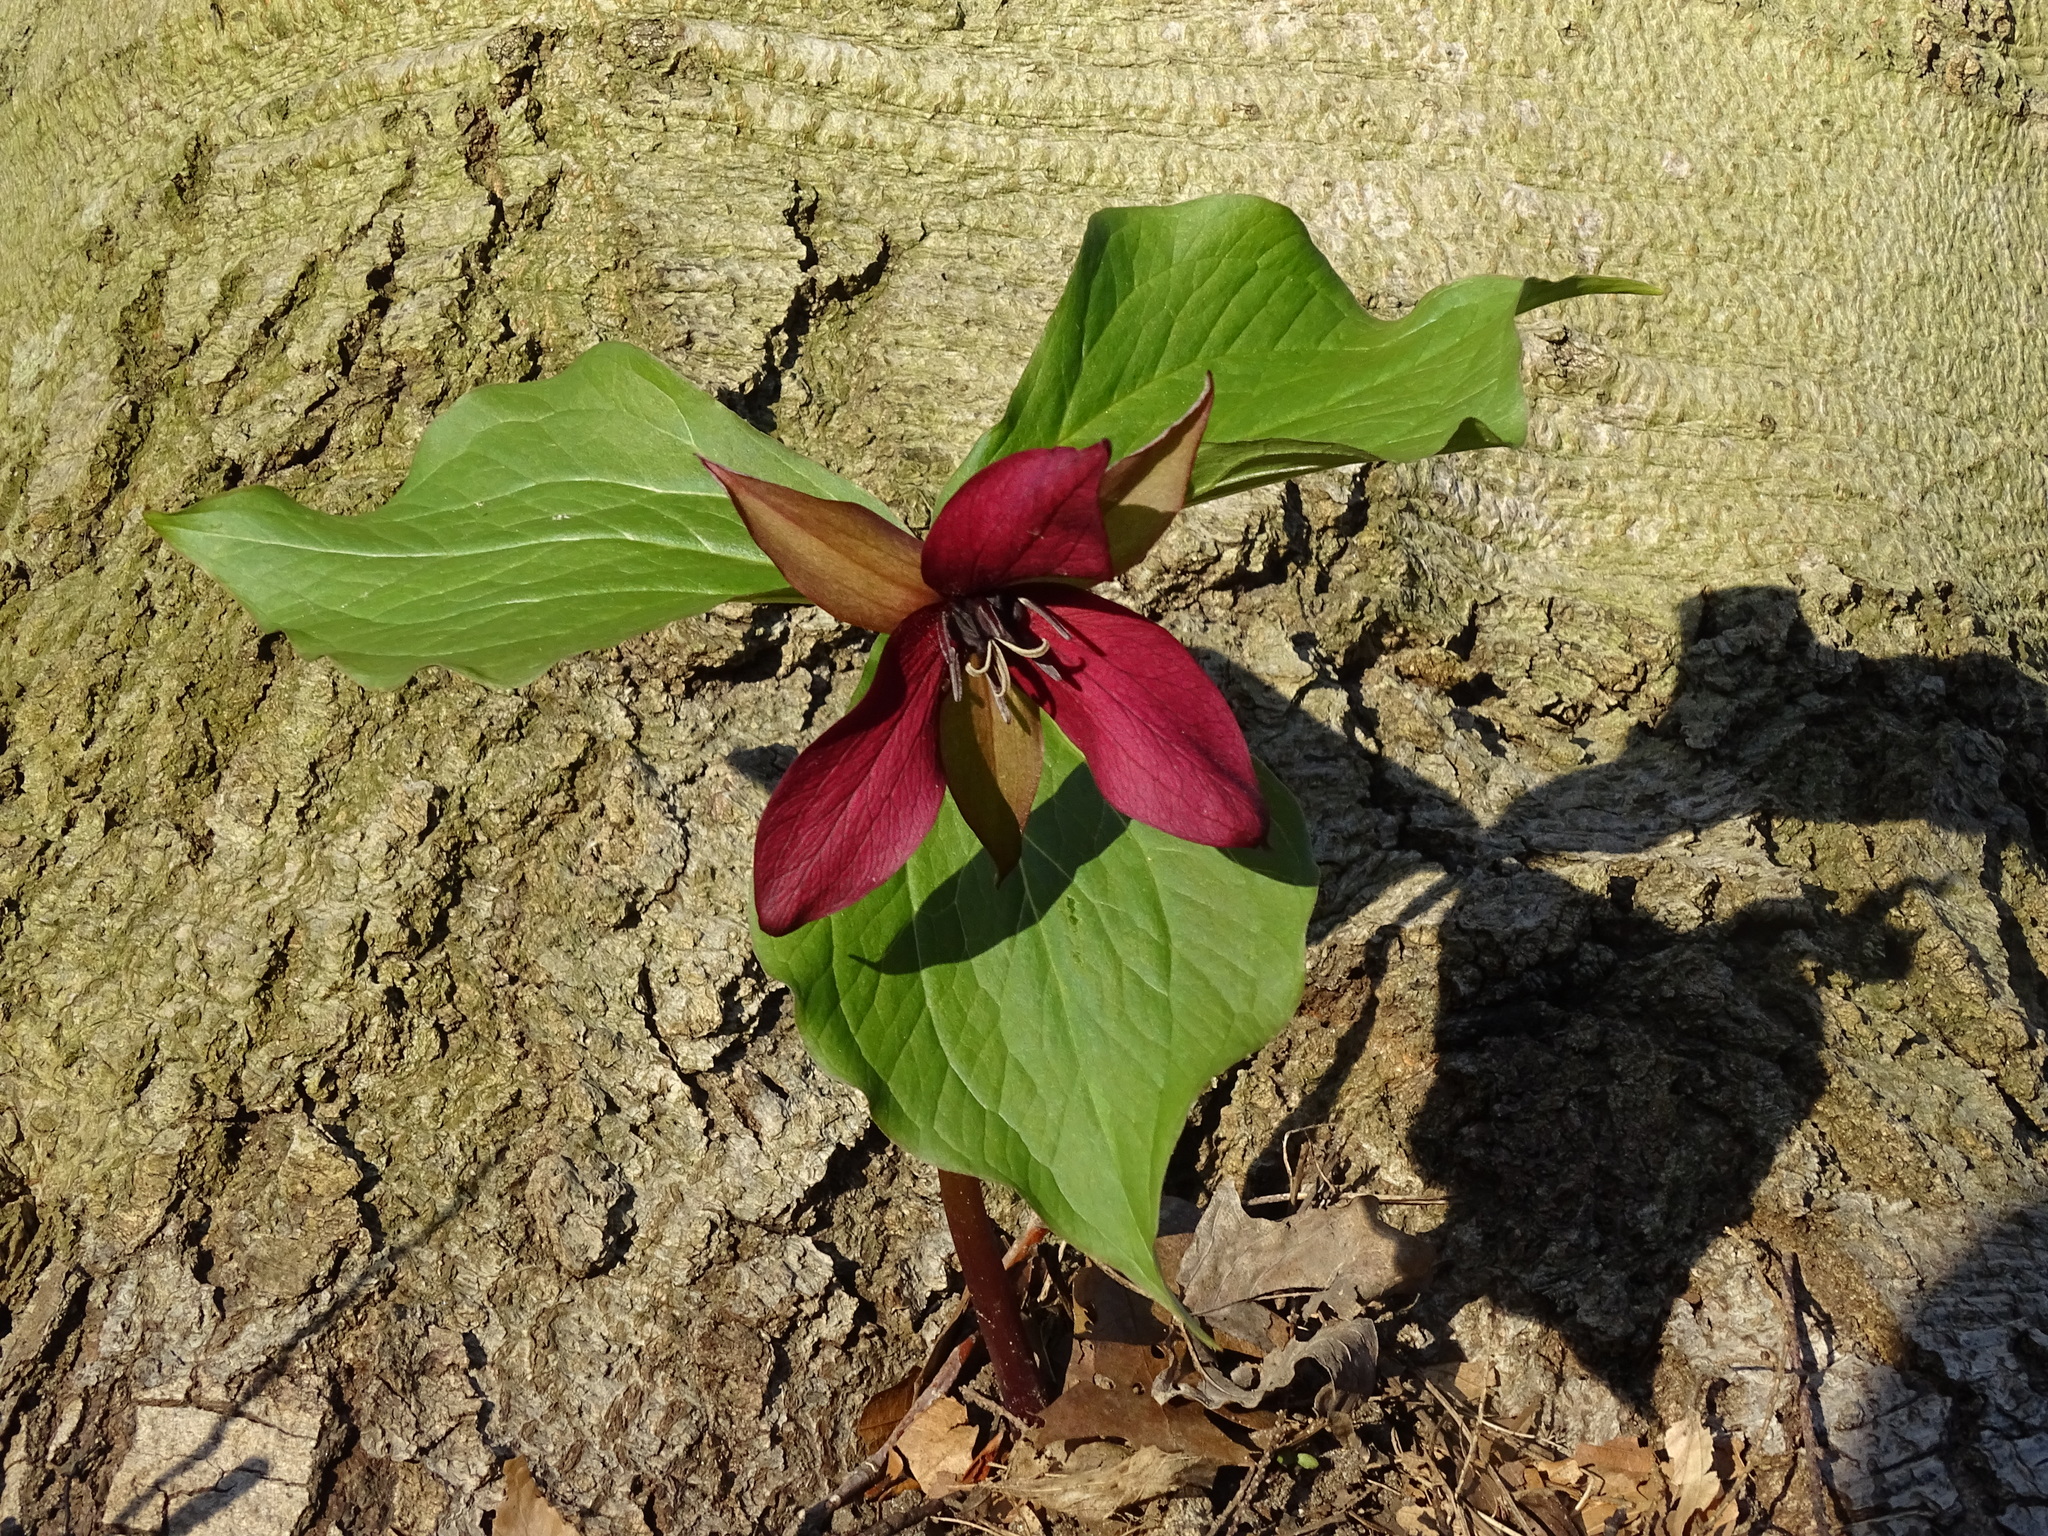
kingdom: Plantae
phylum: Tracheophyta
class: Liliopsida
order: Liliales
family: Melanthiaceae
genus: Trillium
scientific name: Trillium erectum
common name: Purple trillium
